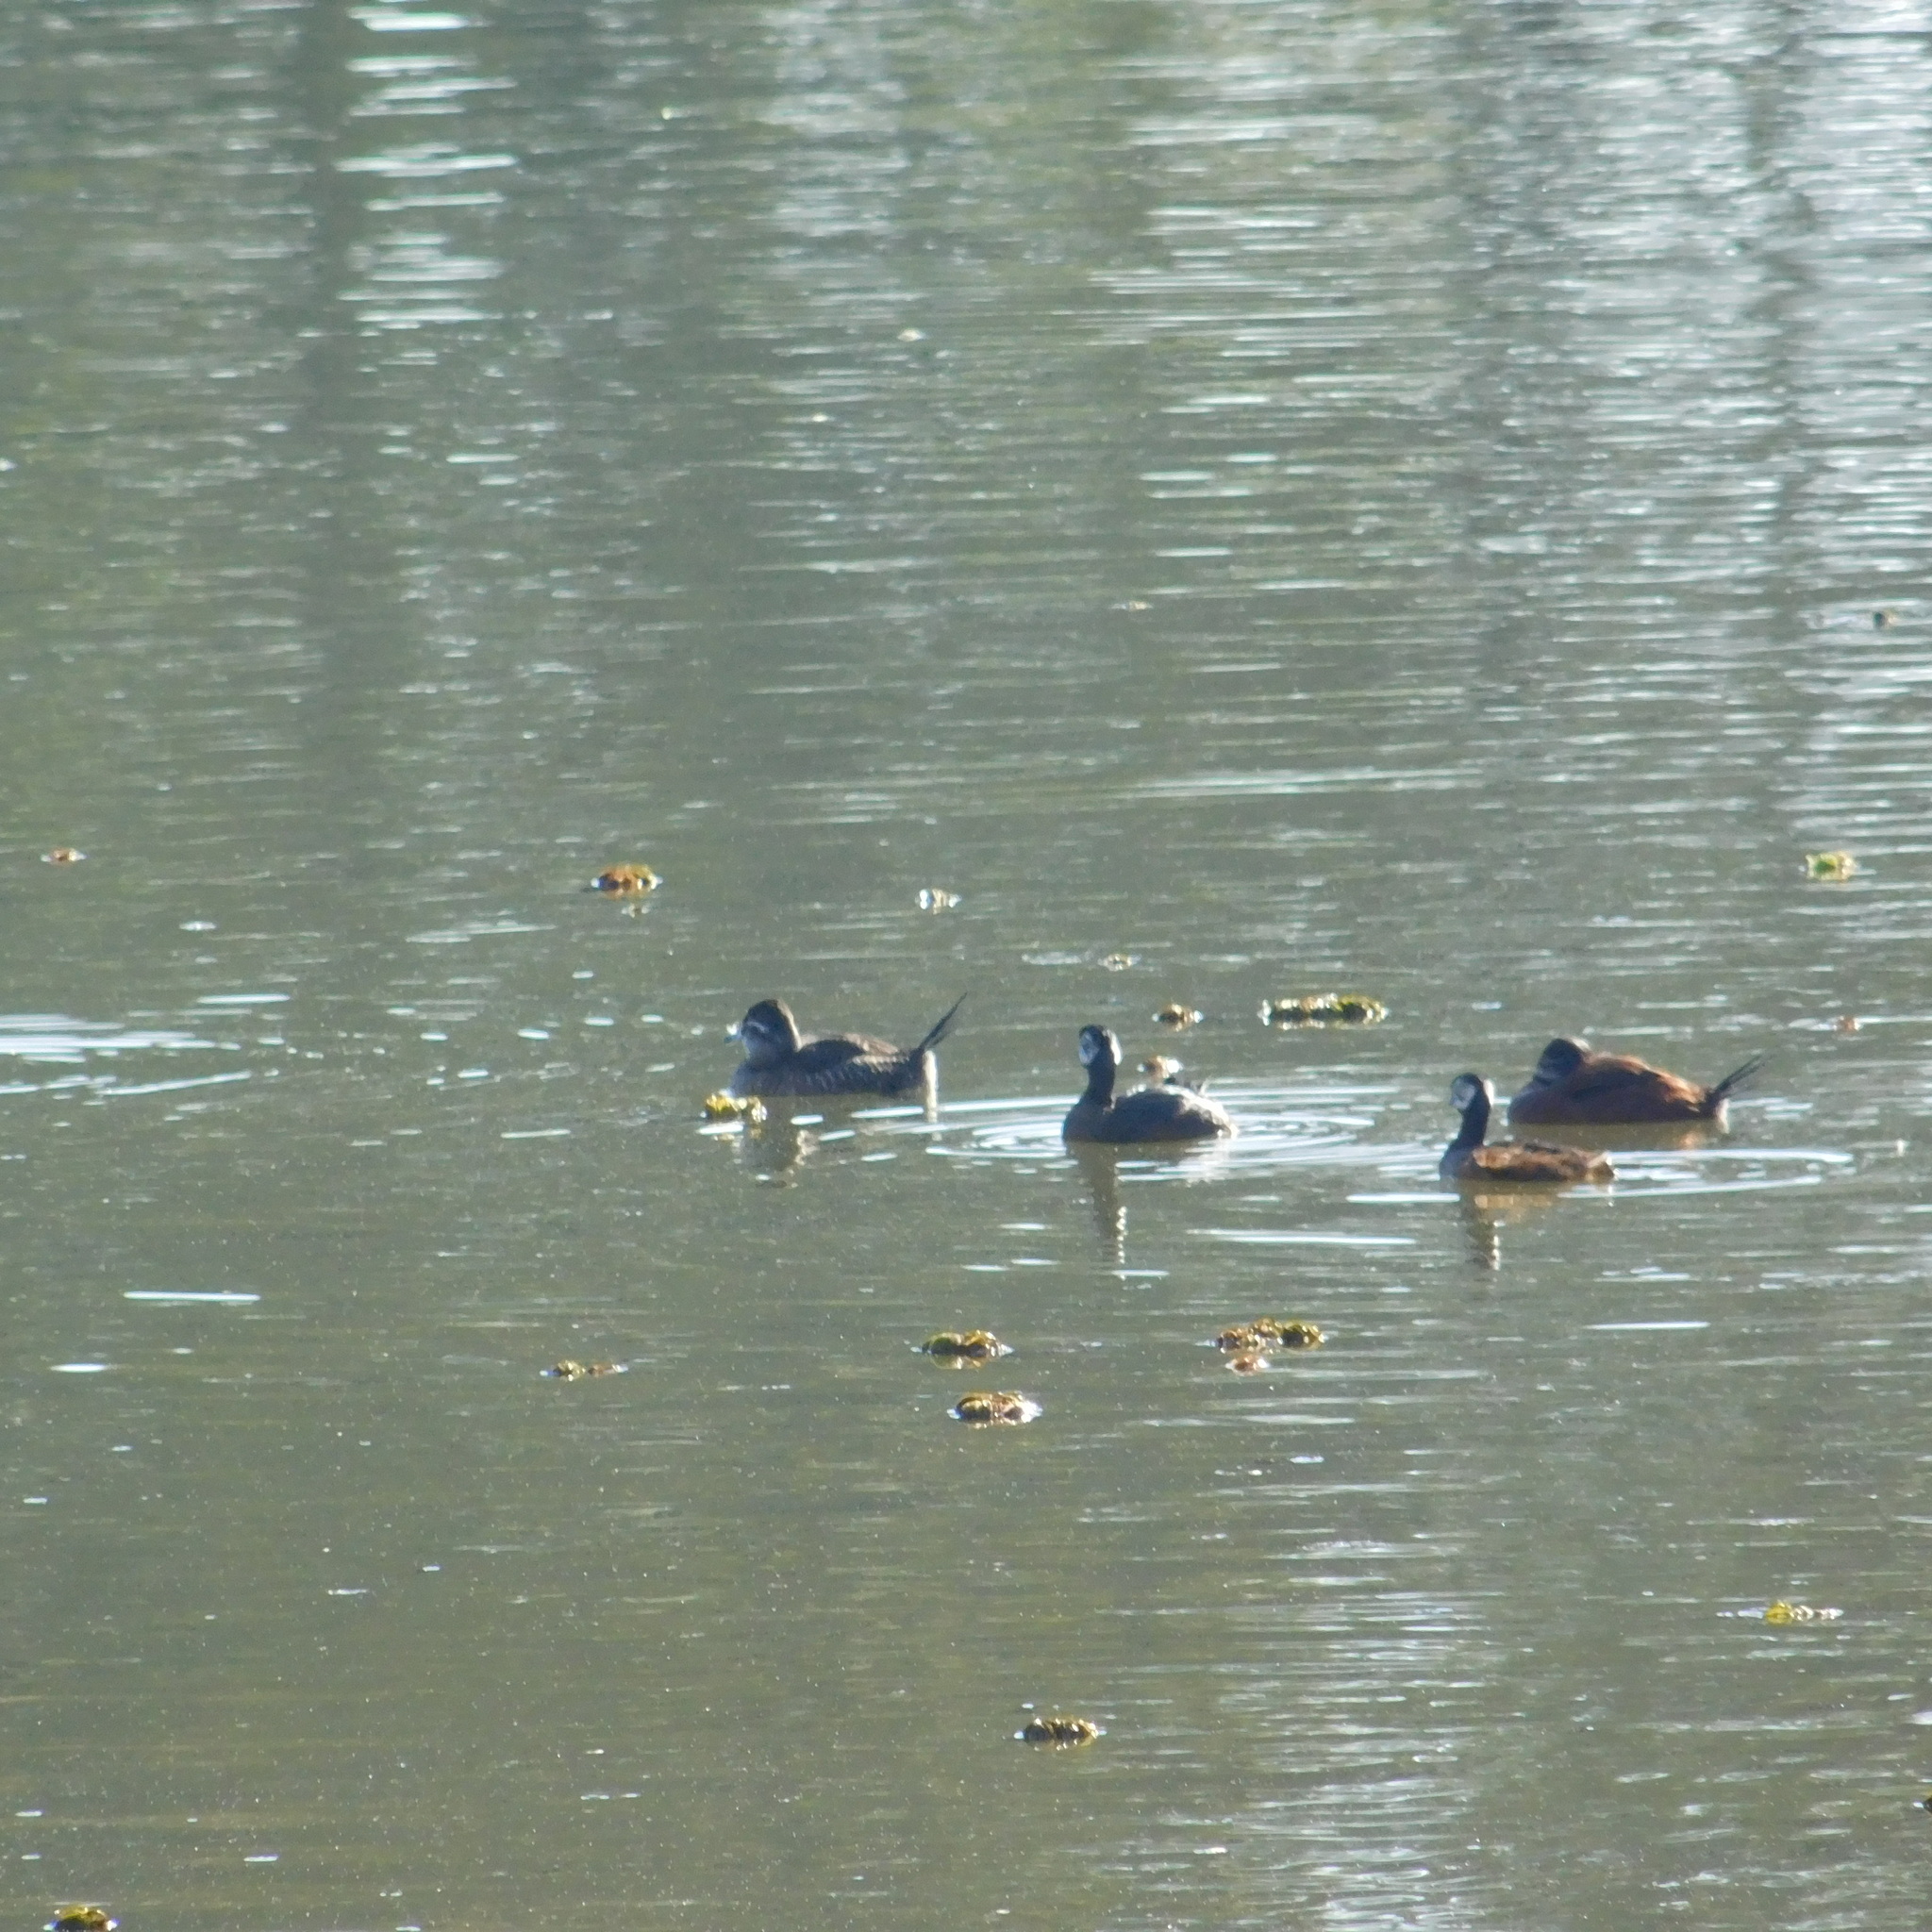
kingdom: Animalia
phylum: Chordata
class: Aves
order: Anseriformes
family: Anatidae
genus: Oxyura
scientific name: Oxyura vittata
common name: Lake duck
